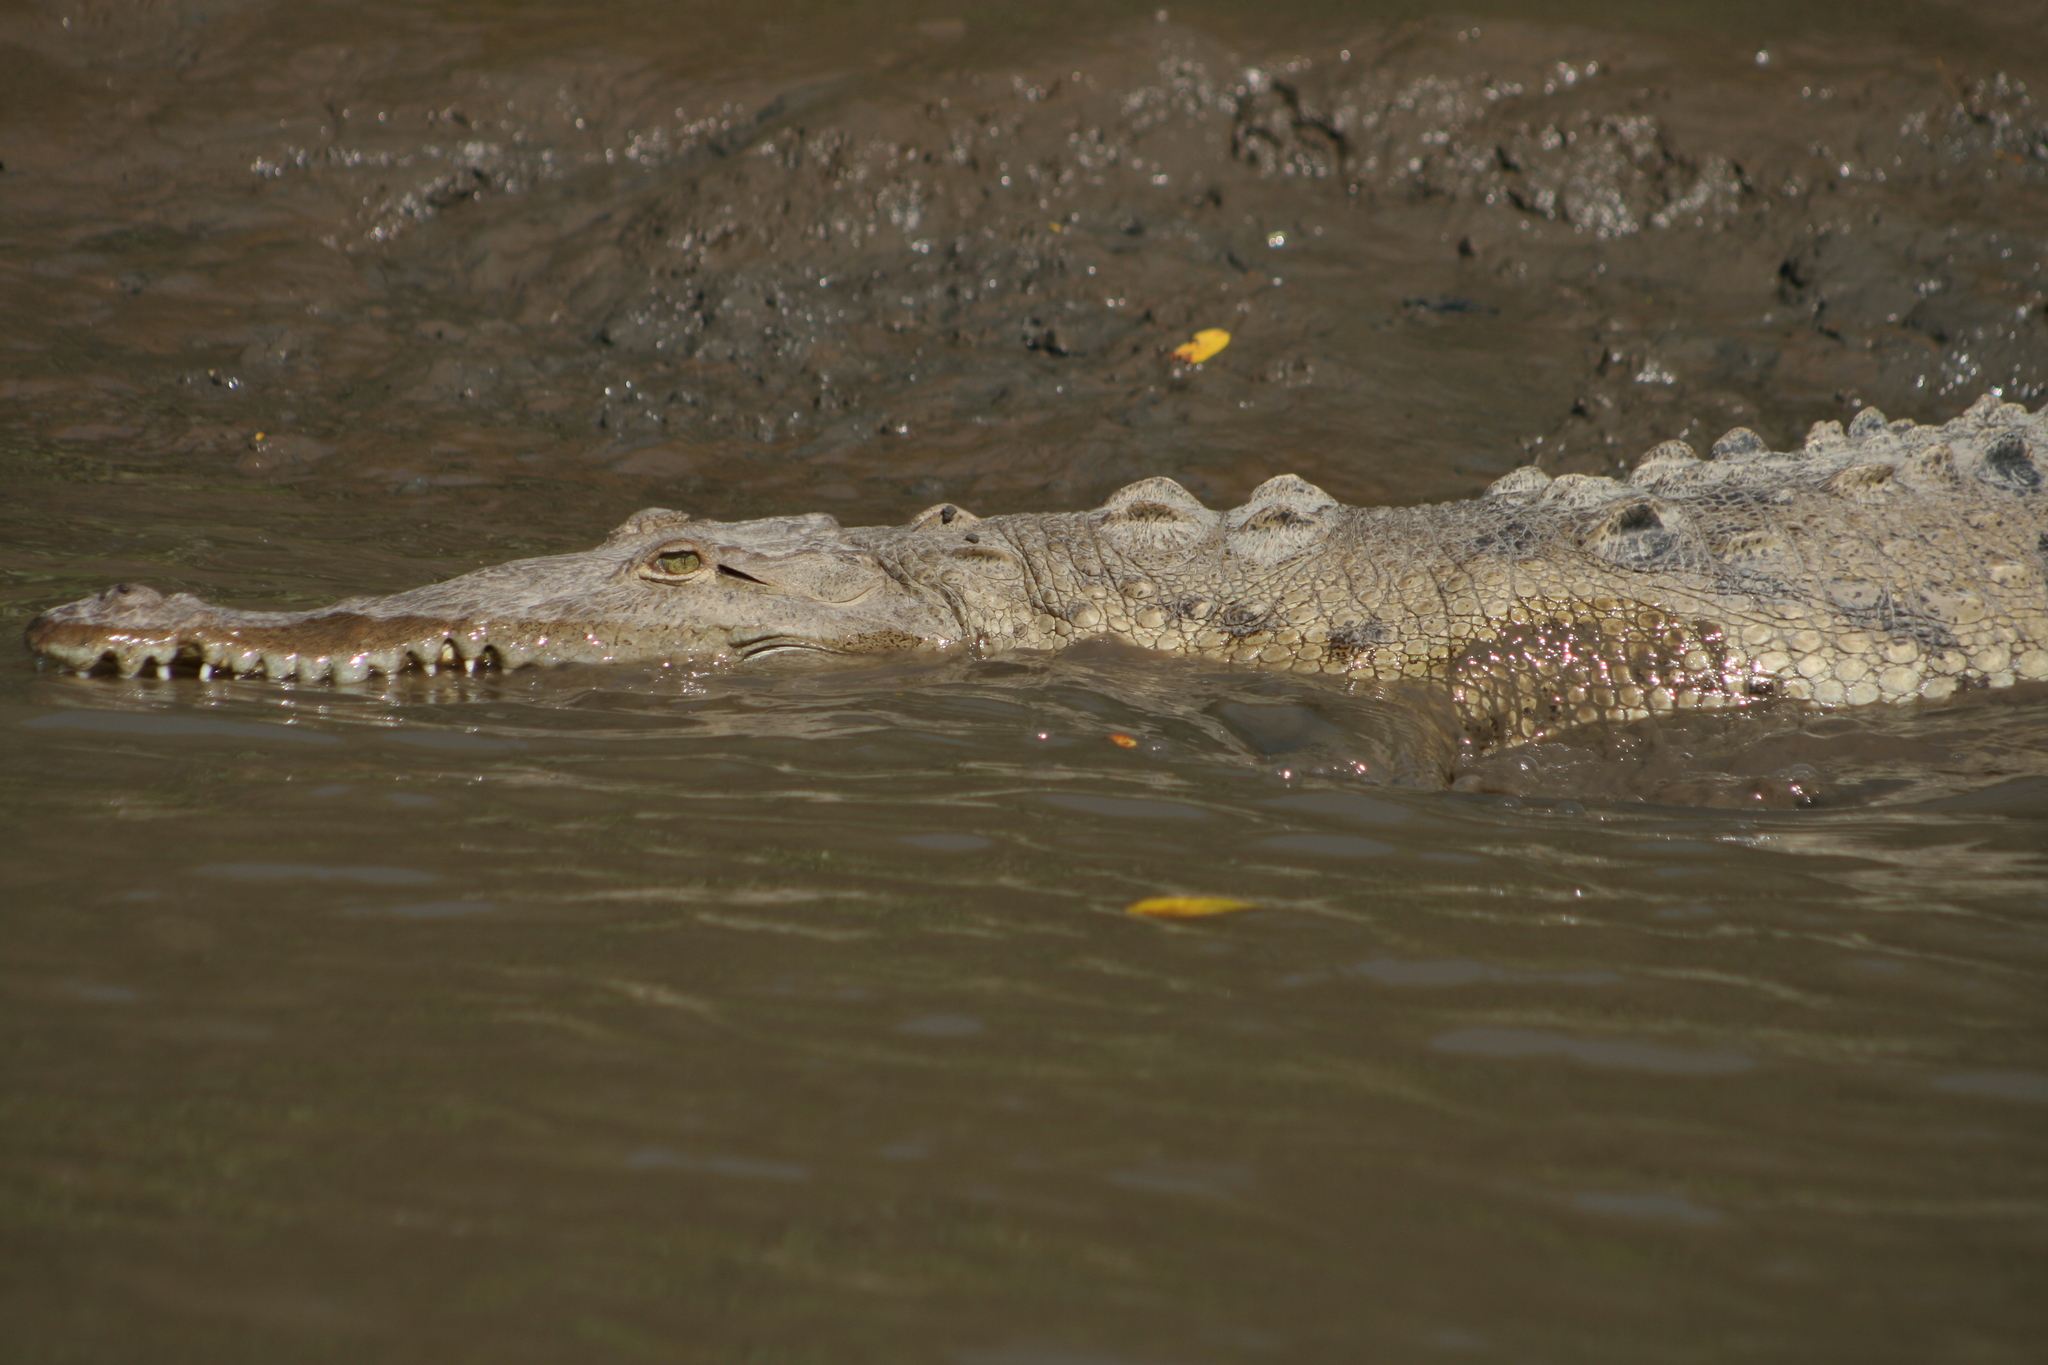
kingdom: Animalia
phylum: Chordata
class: Crocodylia
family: Crocodylidae
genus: Crocodylus
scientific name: Crocodylus acutus
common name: American crocodile
